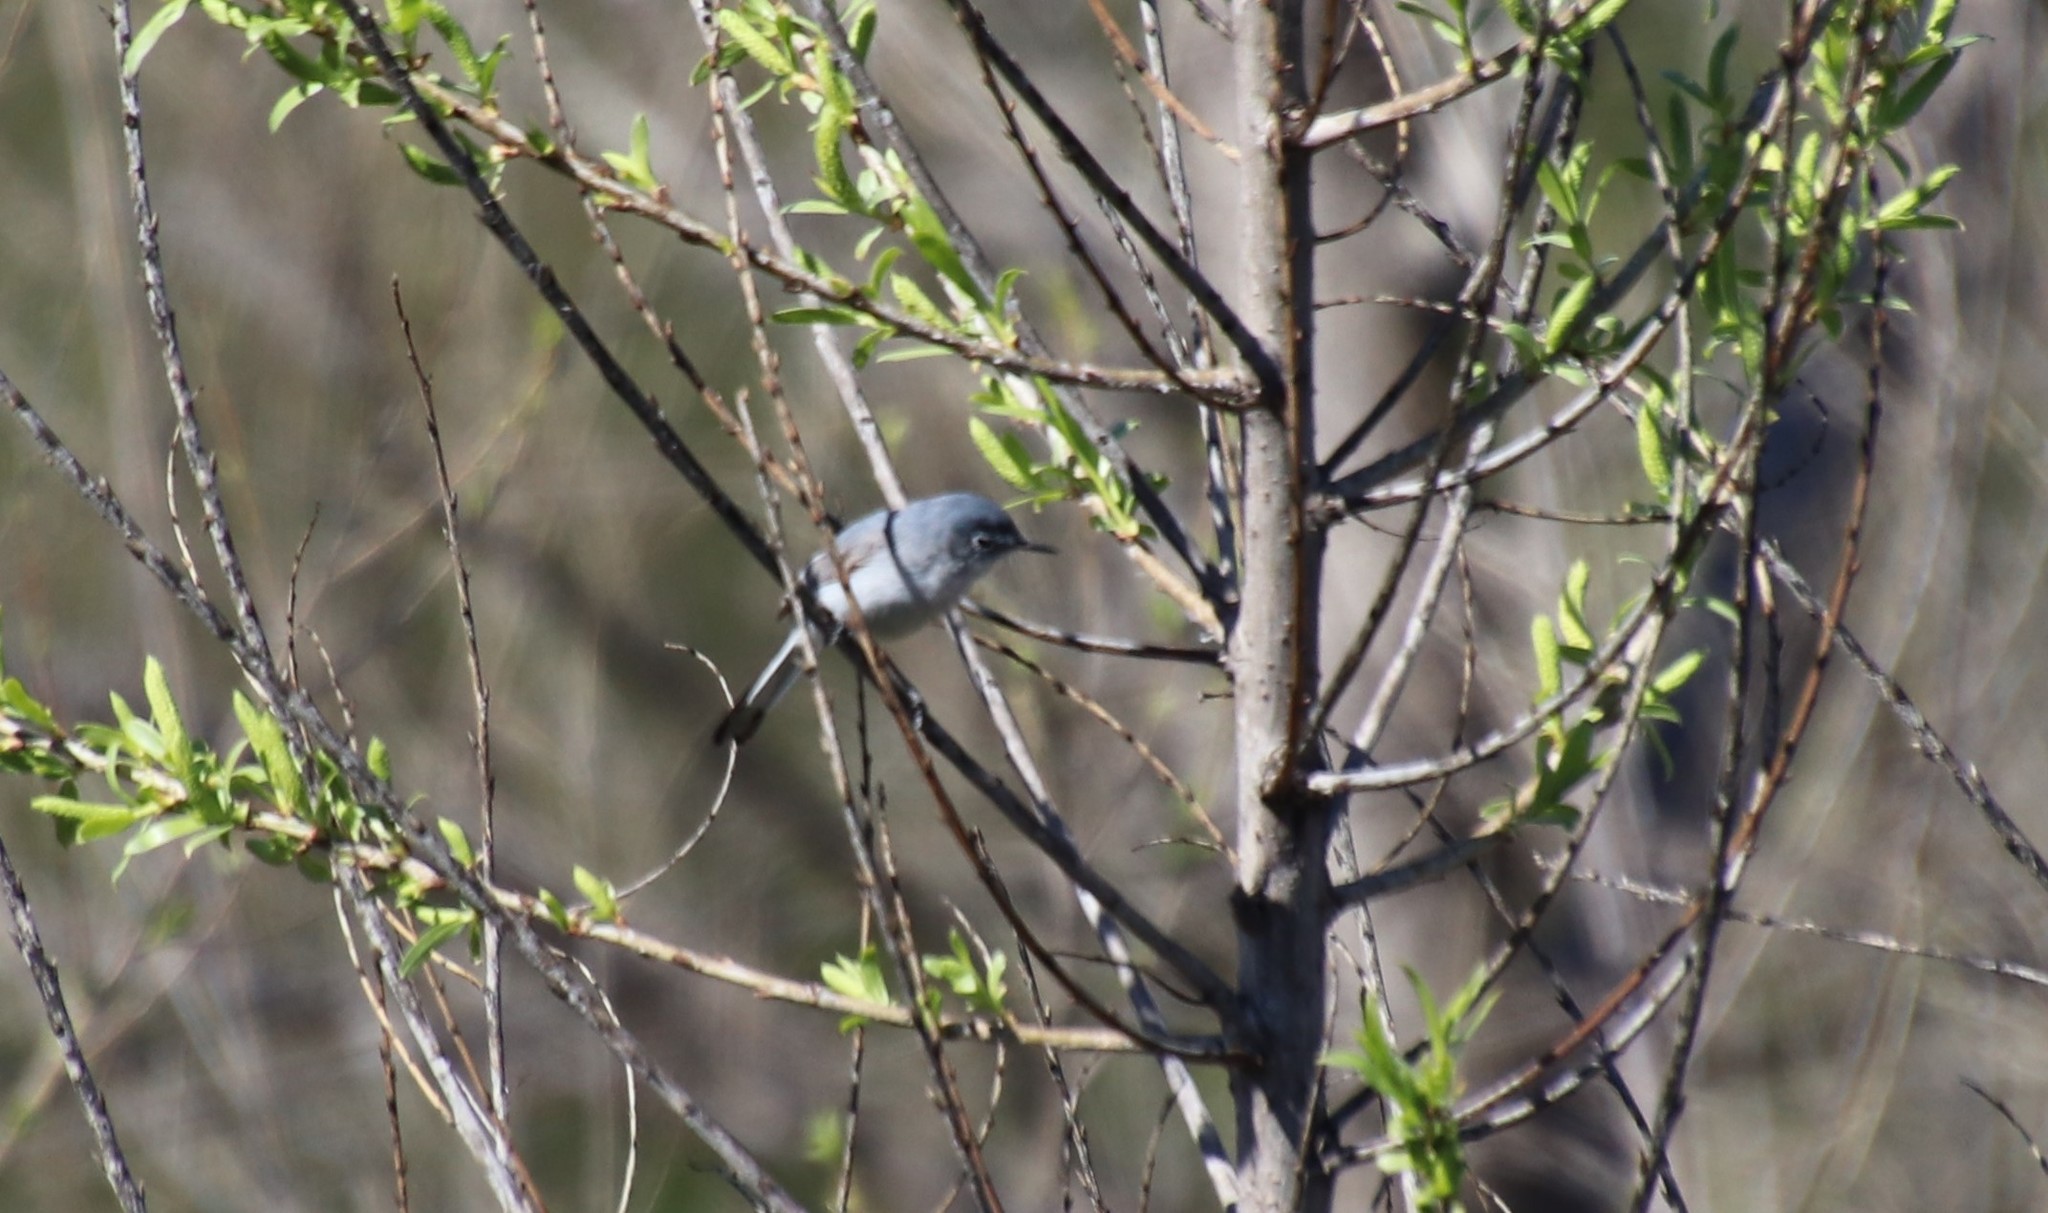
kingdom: Animalia
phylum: Chordata
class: Aves
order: Passeriformes
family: Polioptilidae
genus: Polioptila
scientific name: Polioptila caerulea
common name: Blue-gray gnatcatcher
